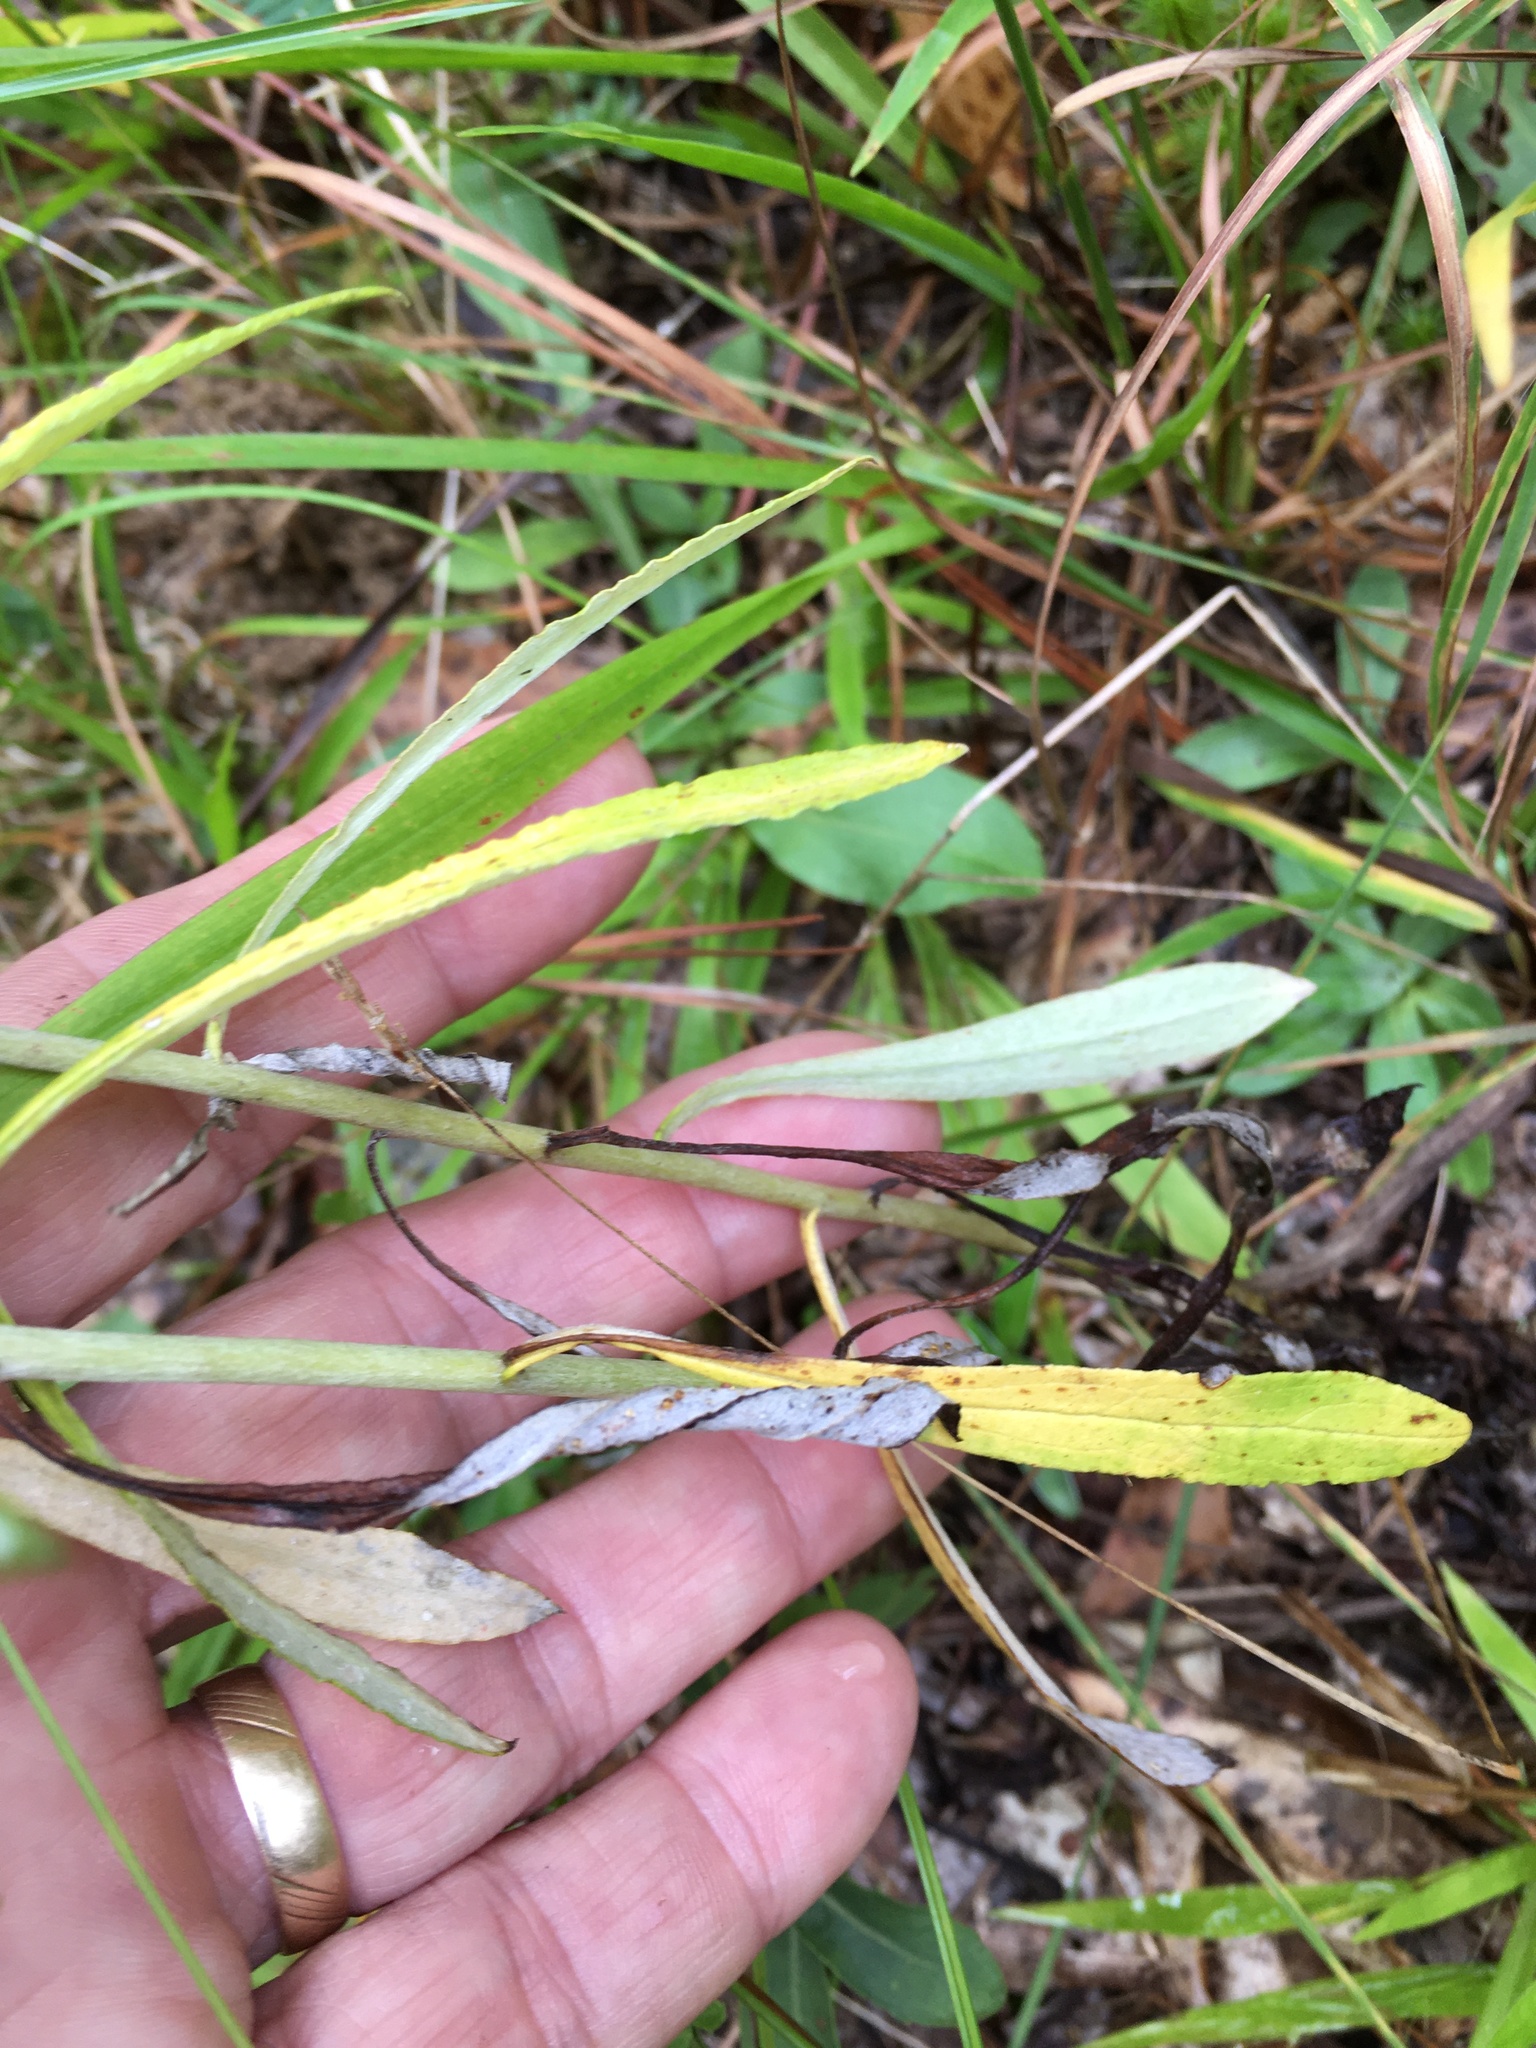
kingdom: Plantae
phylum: Tracheophyta
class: Magnoliopsida
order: Asterales
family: Asteraceae
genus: Pseudognaphalium
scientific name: Pseudognaphalium obtusifolium
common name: Eastern rabbit-tobacco
